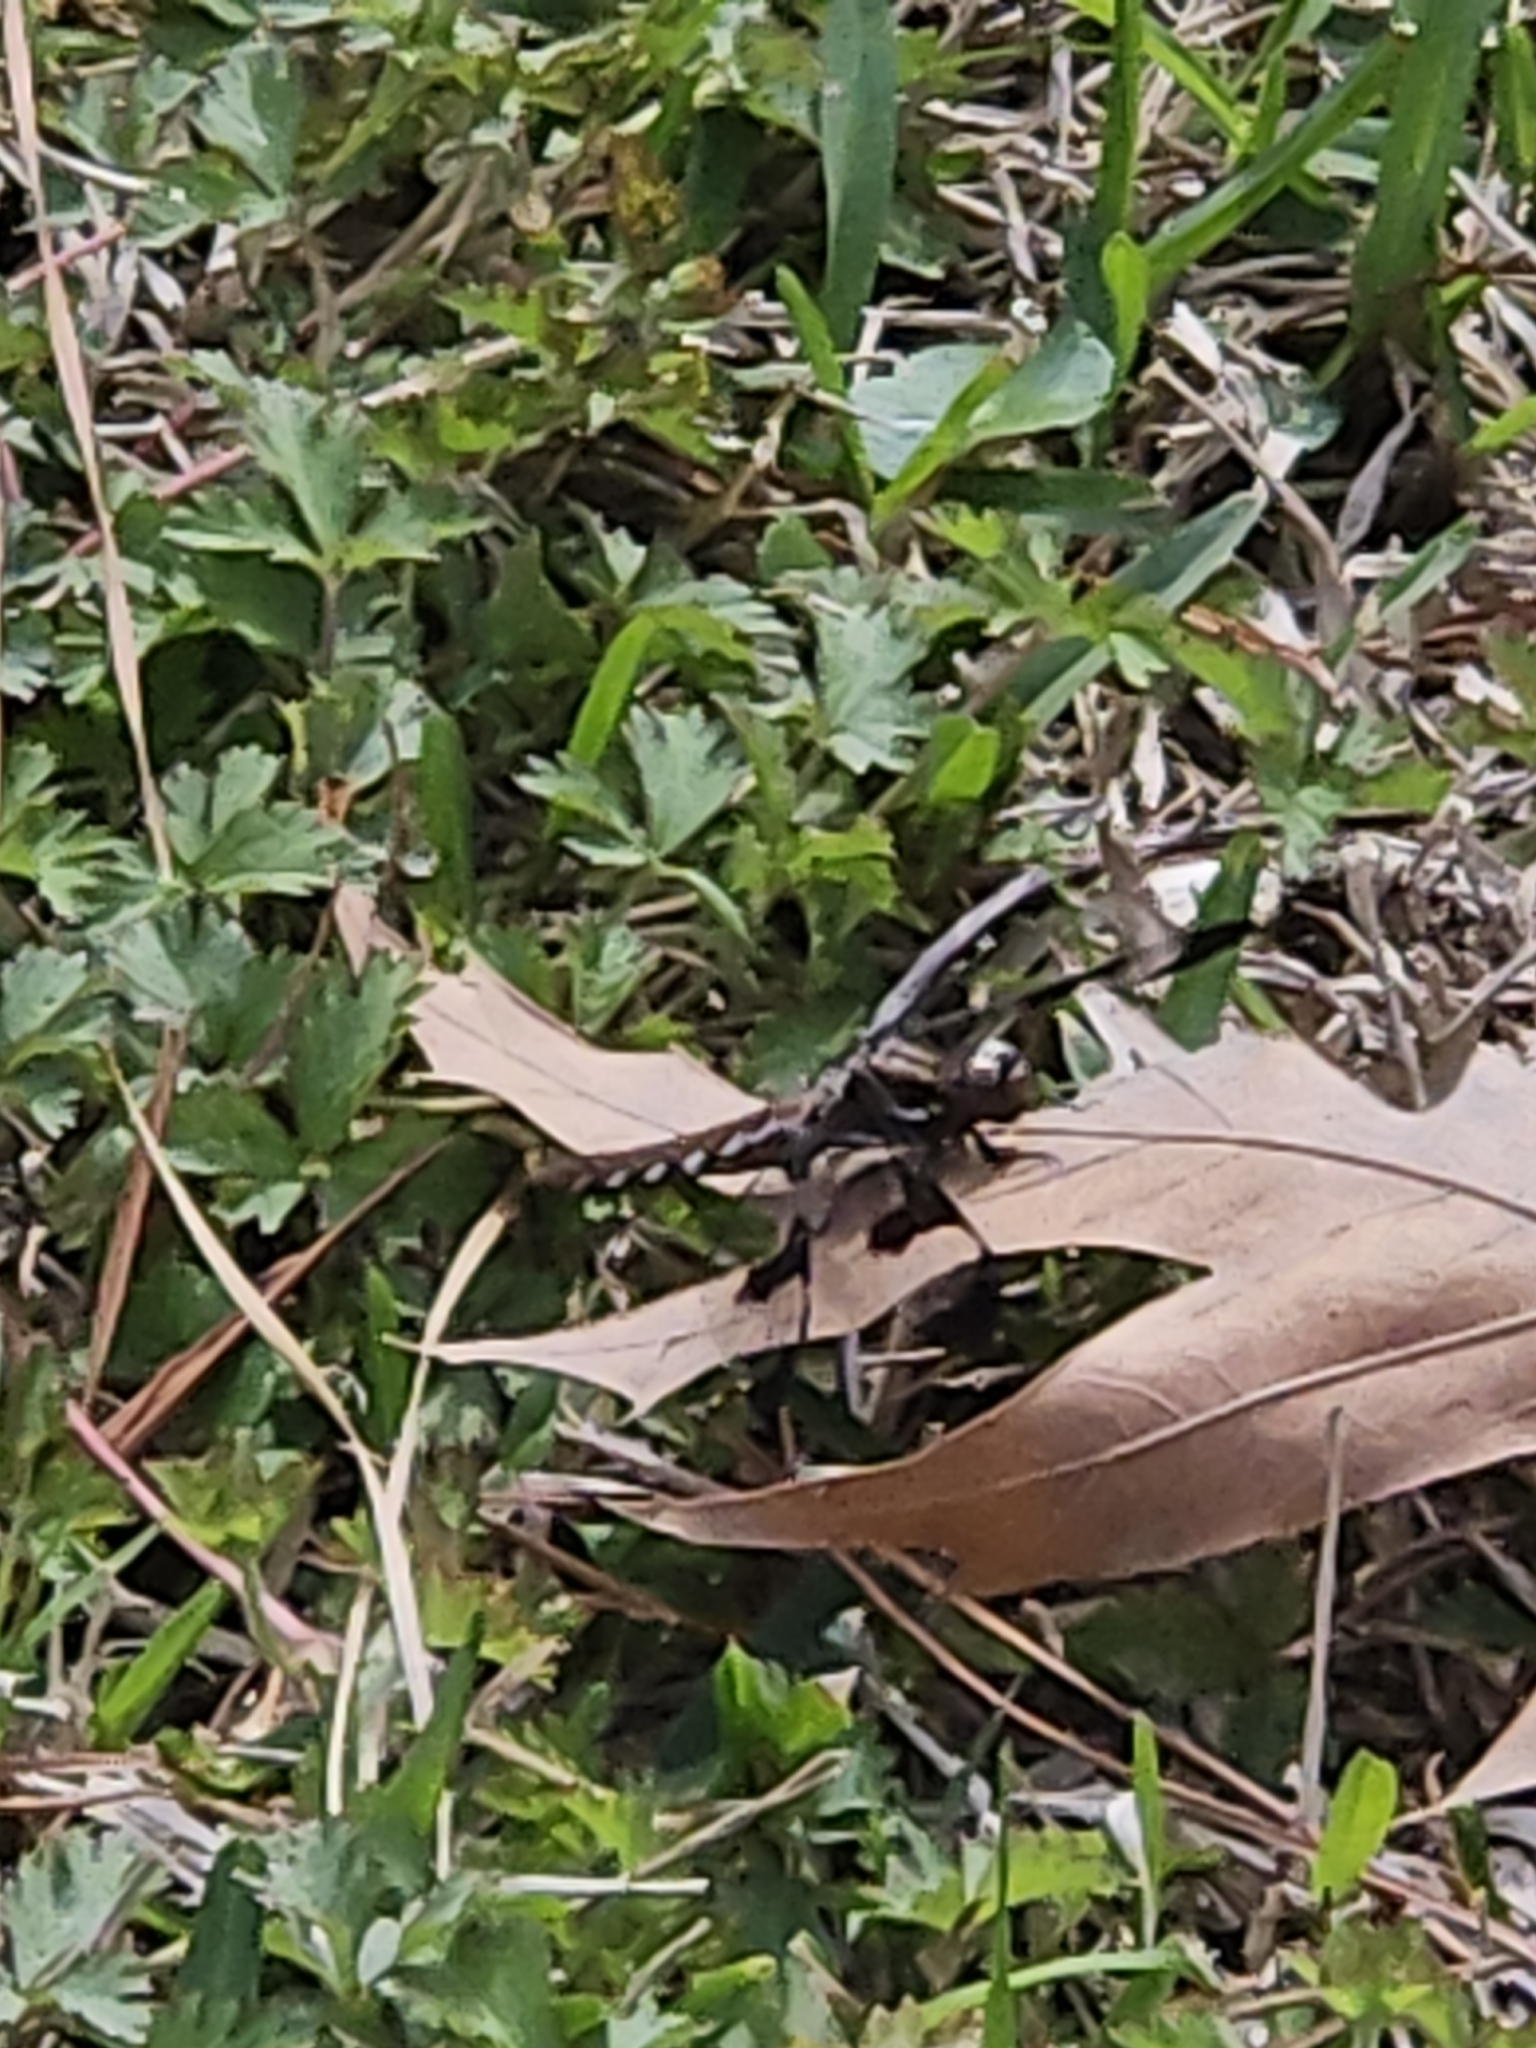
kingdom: Animalia
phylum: Arthropoda
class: Insecta
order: Odonata
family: Libellulidae
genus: Plathemis
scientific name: Plathemis lydia
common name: Common whitetail
